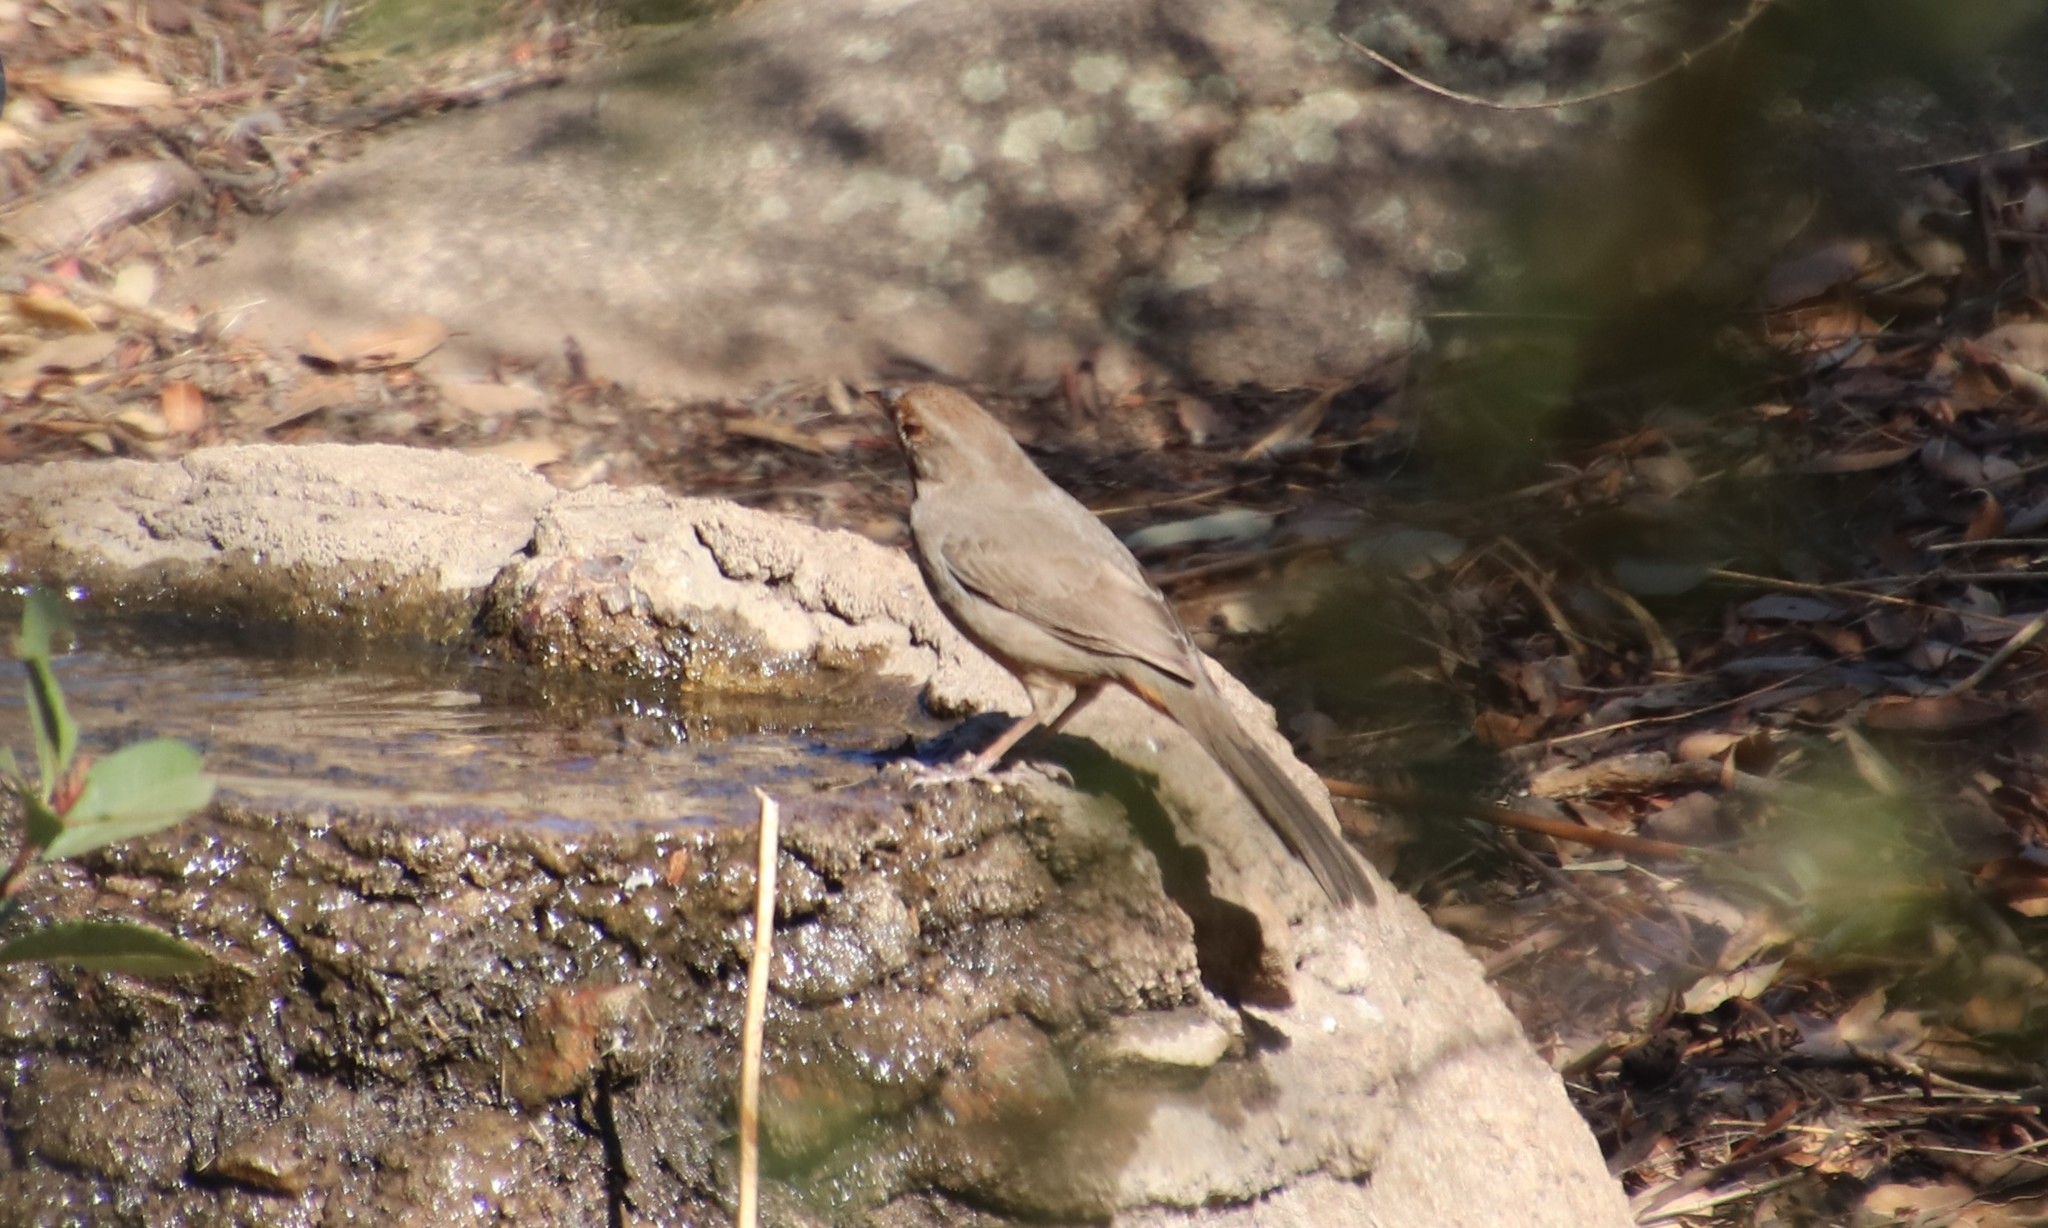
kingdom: Animalia
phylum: Chordata
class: Aves
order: Passeriformes
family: Passerellidae
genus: Melozone
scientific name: Melozone crissalis
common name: California towhee
